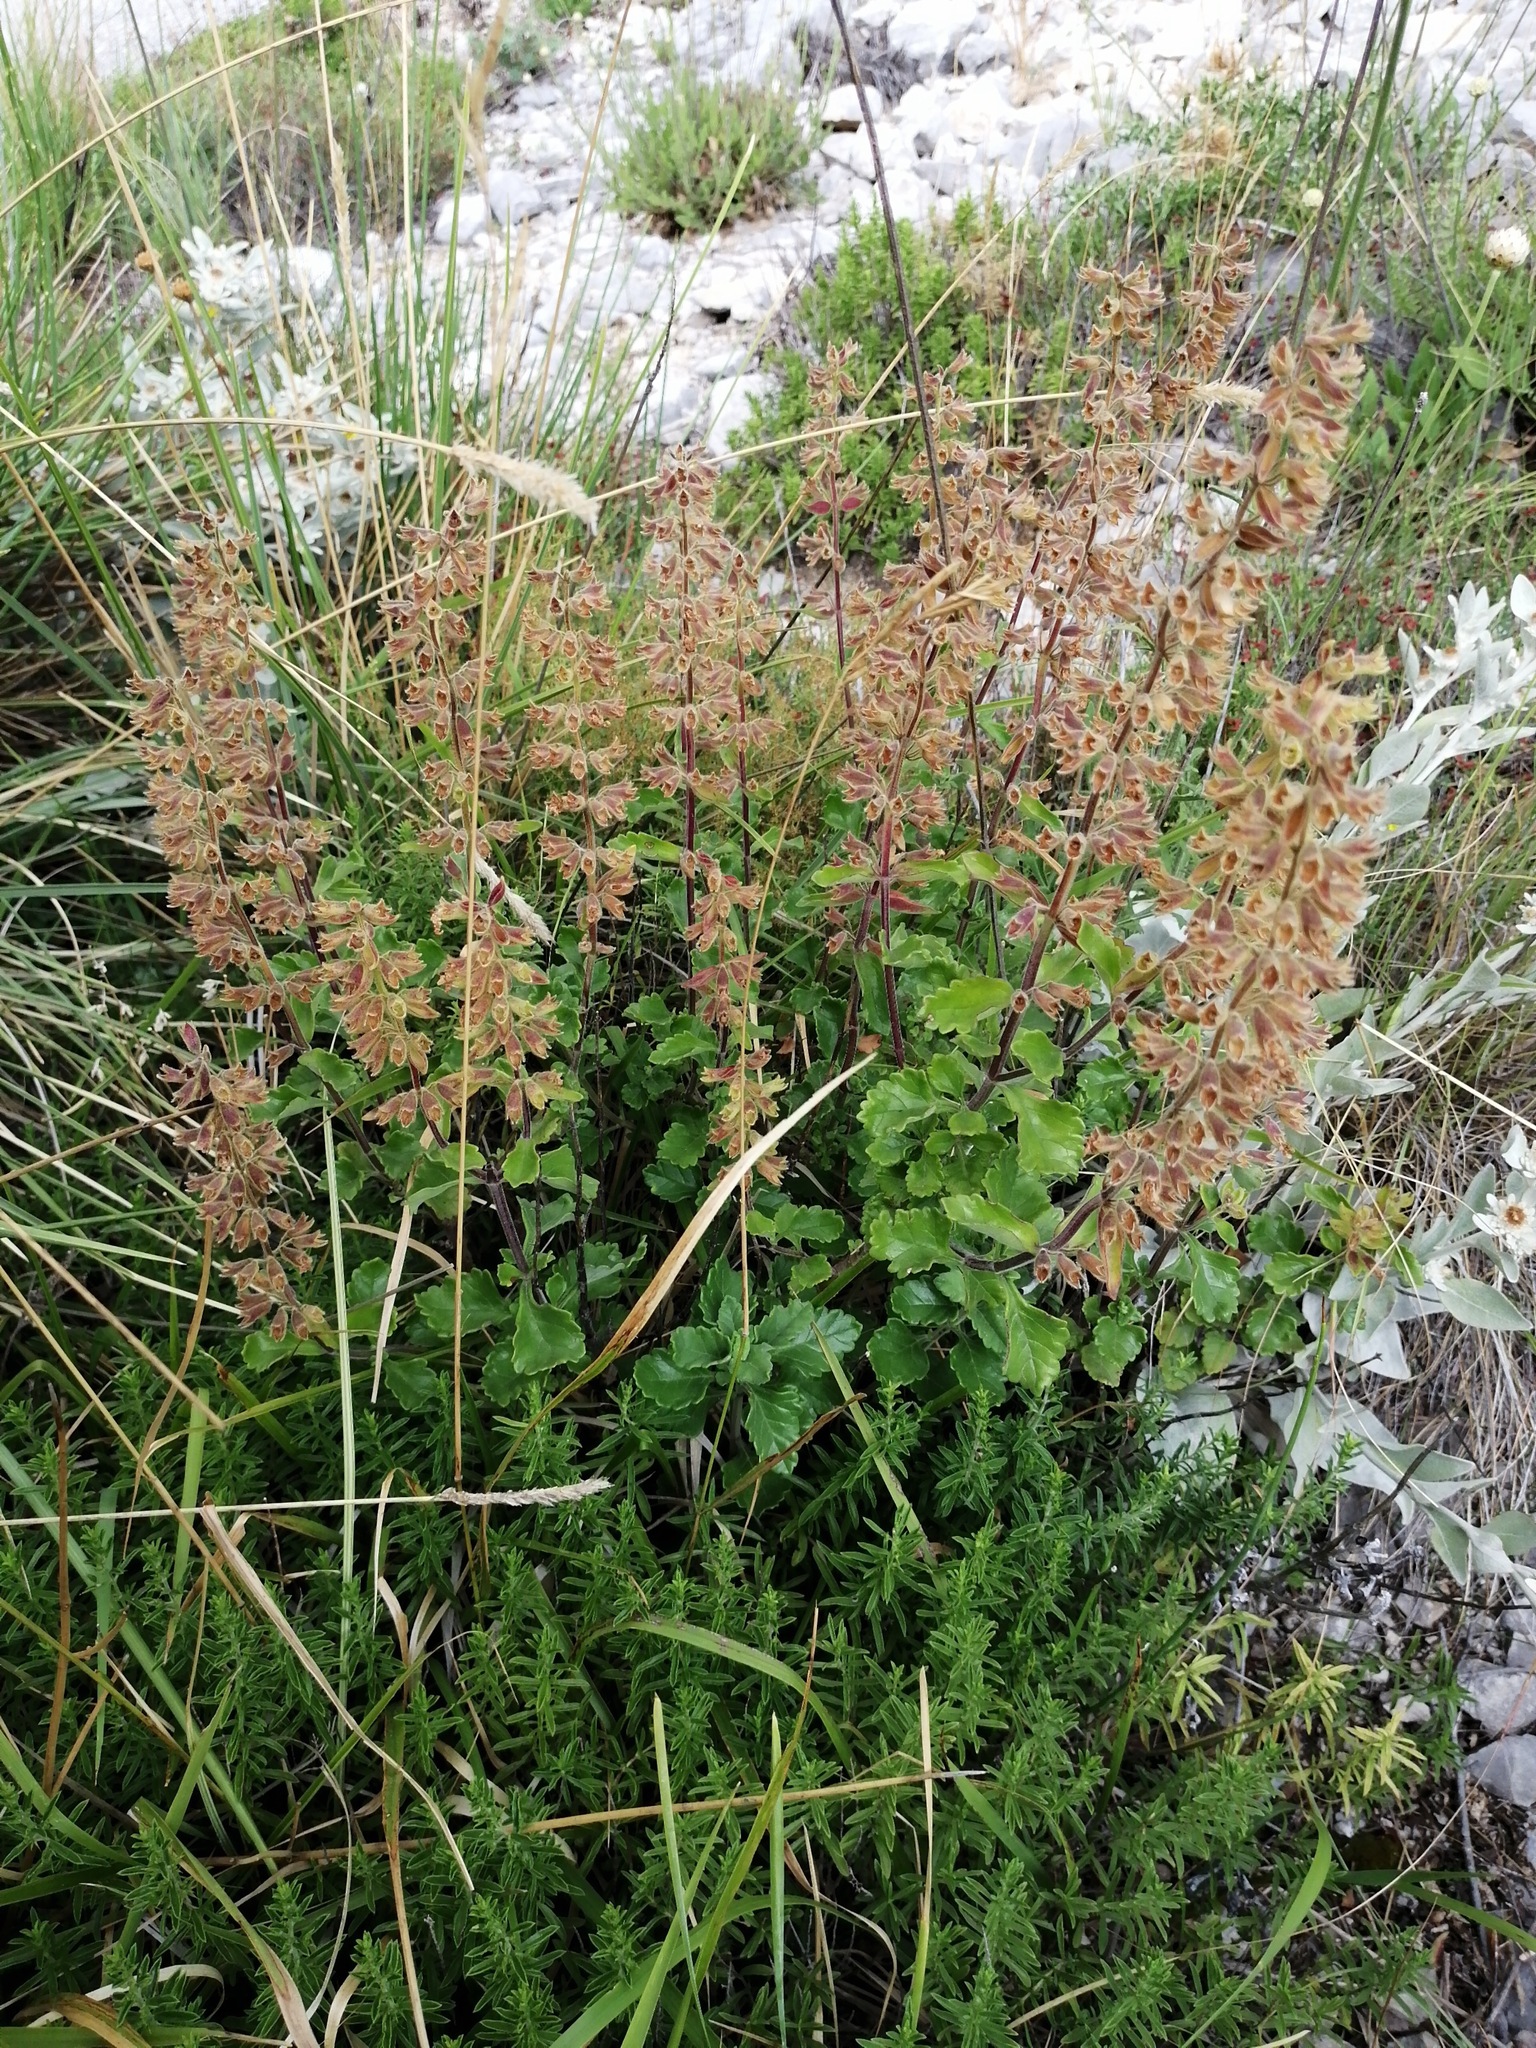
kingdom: Plantae
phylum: Tracheophyta
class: Magnoliopsida
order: Lamiales
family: Lamiaceae
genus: Teucrium
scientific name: Teucrium flavum
